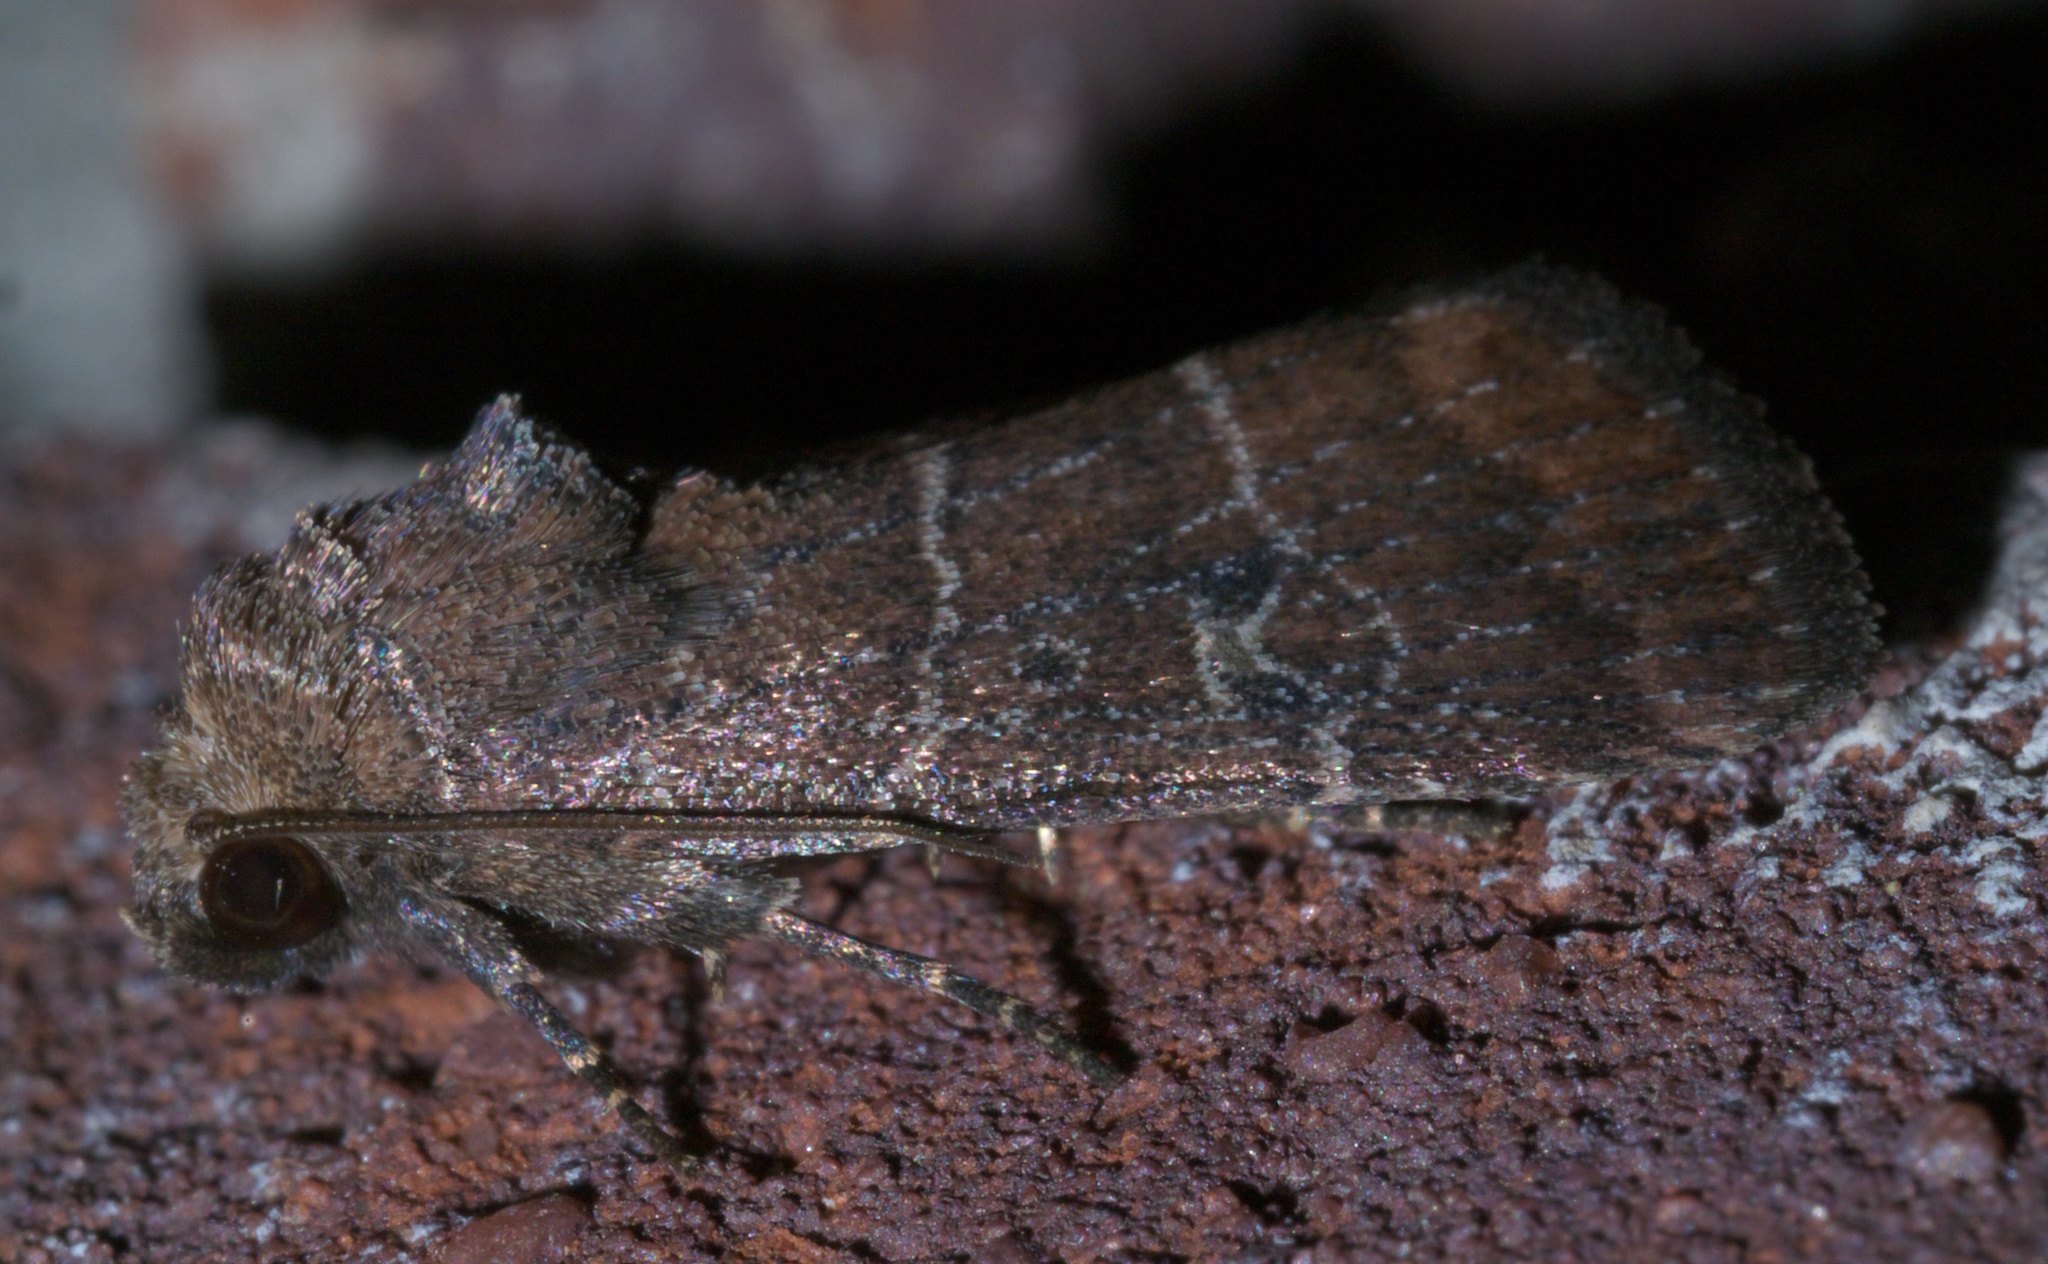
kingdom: Animalia
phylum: Arthropoda
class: Insecta
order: Lepidoptera
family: Noctuidae
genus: Elaphria
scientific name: Elaphria grata
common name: Grateful midget moth
